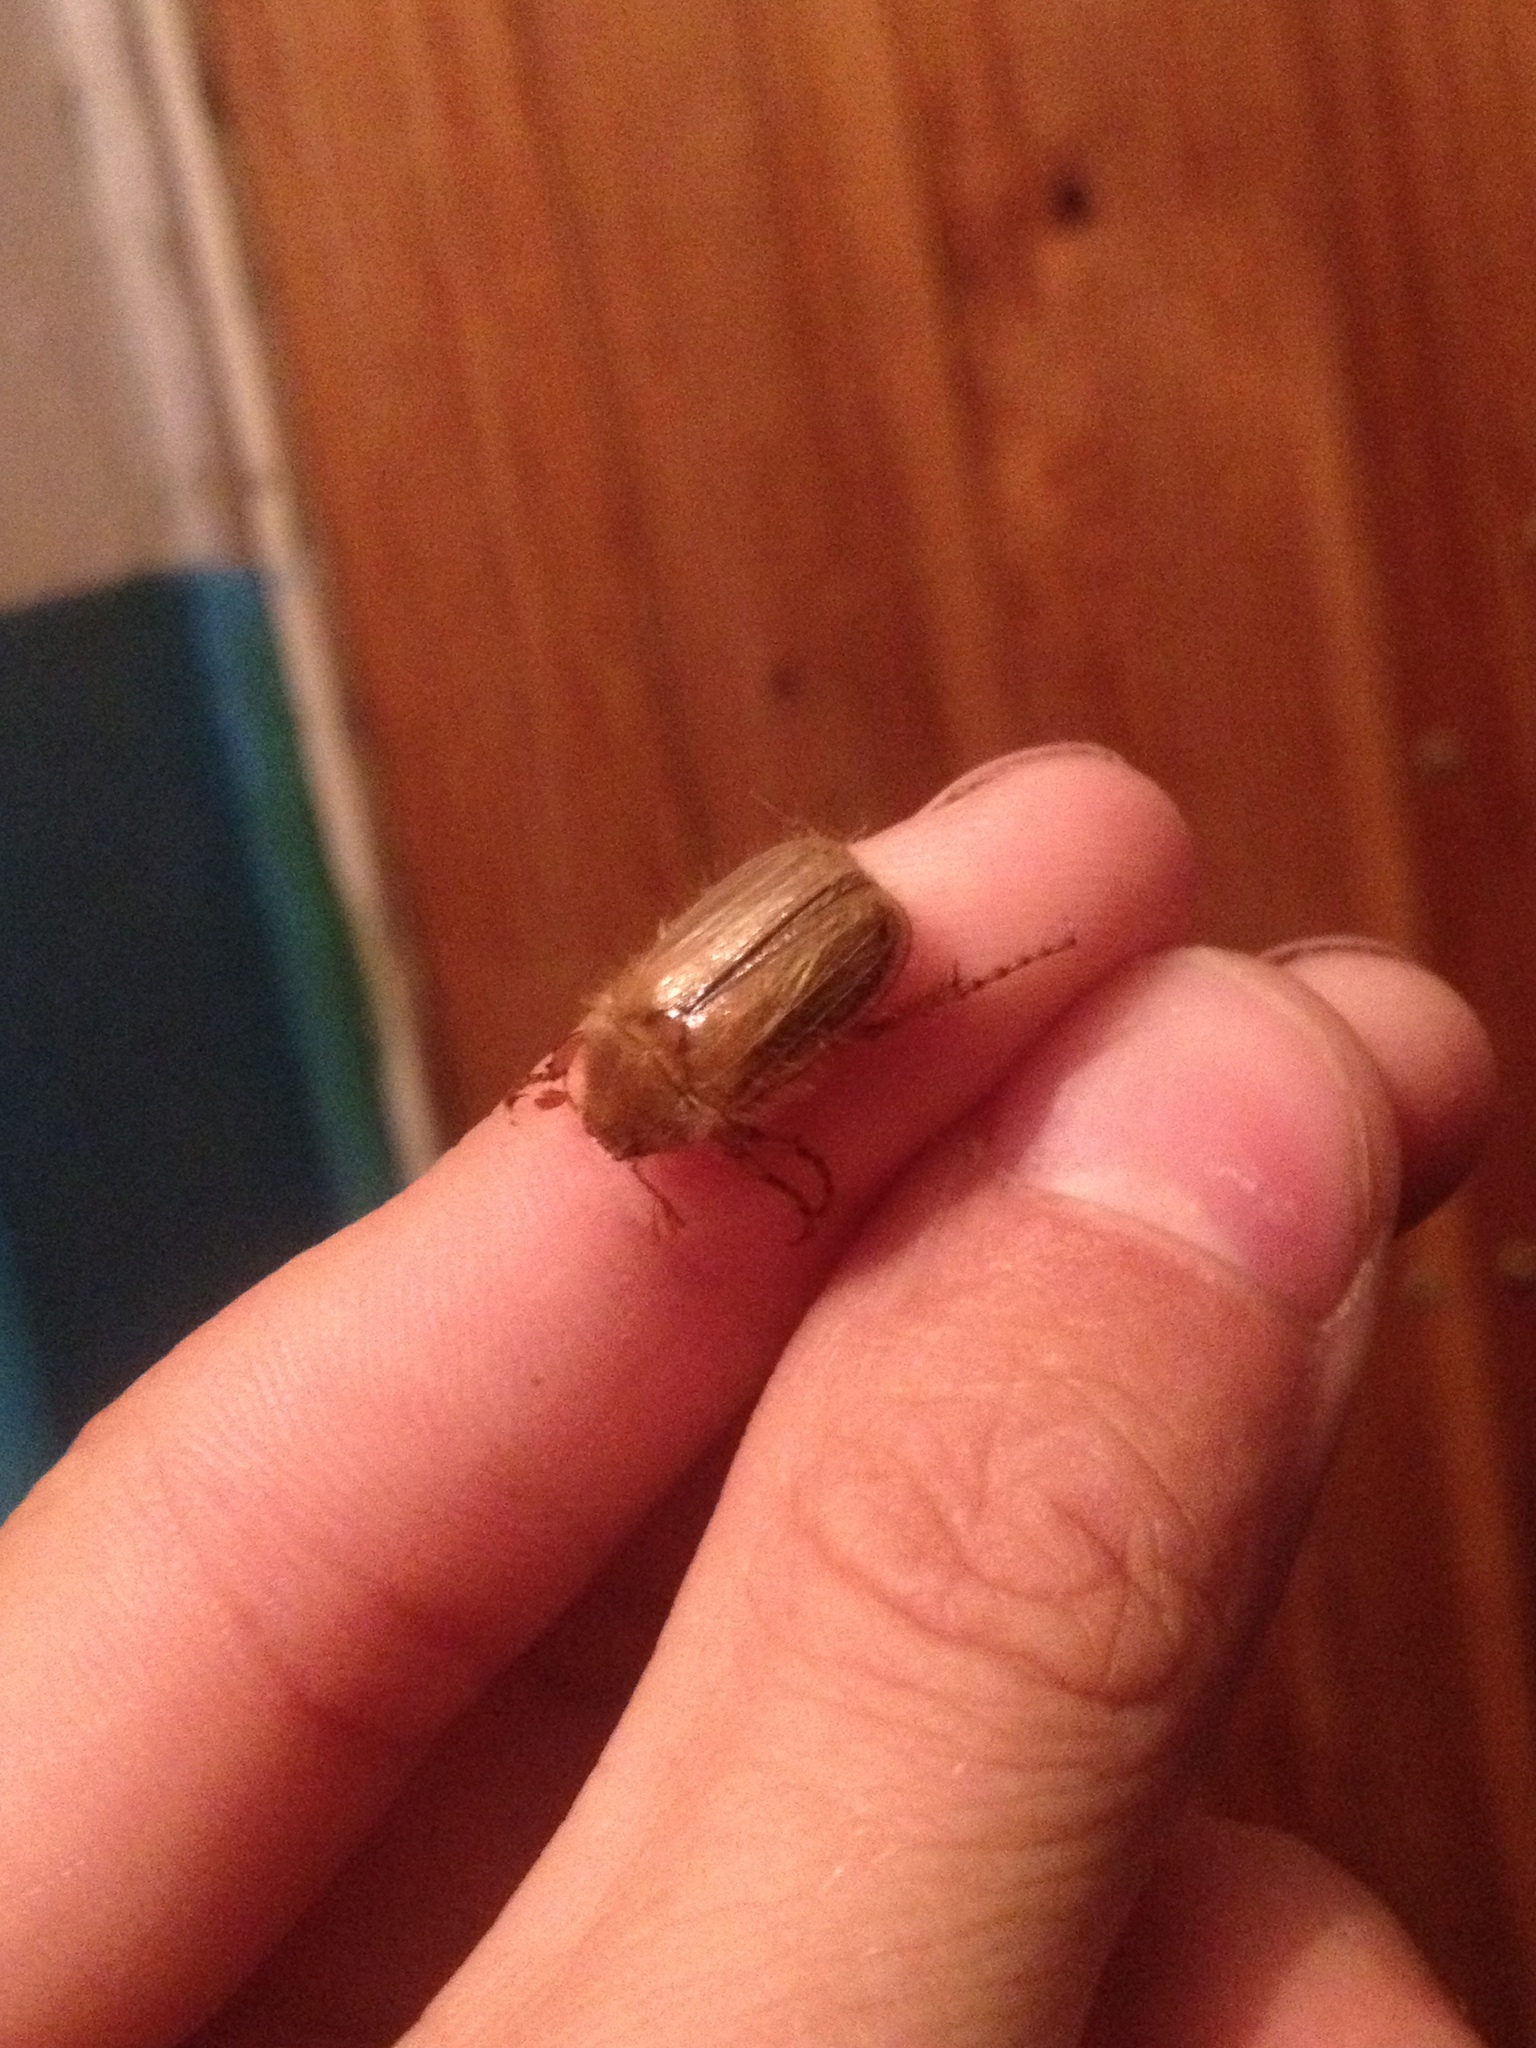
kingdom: Animalia
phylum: Arthropoda
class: Insecta
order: Coleoptera
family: Scarabaeidae
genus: Amphimallon
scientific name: Amphimallon solstitiale
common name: Summer chafer
